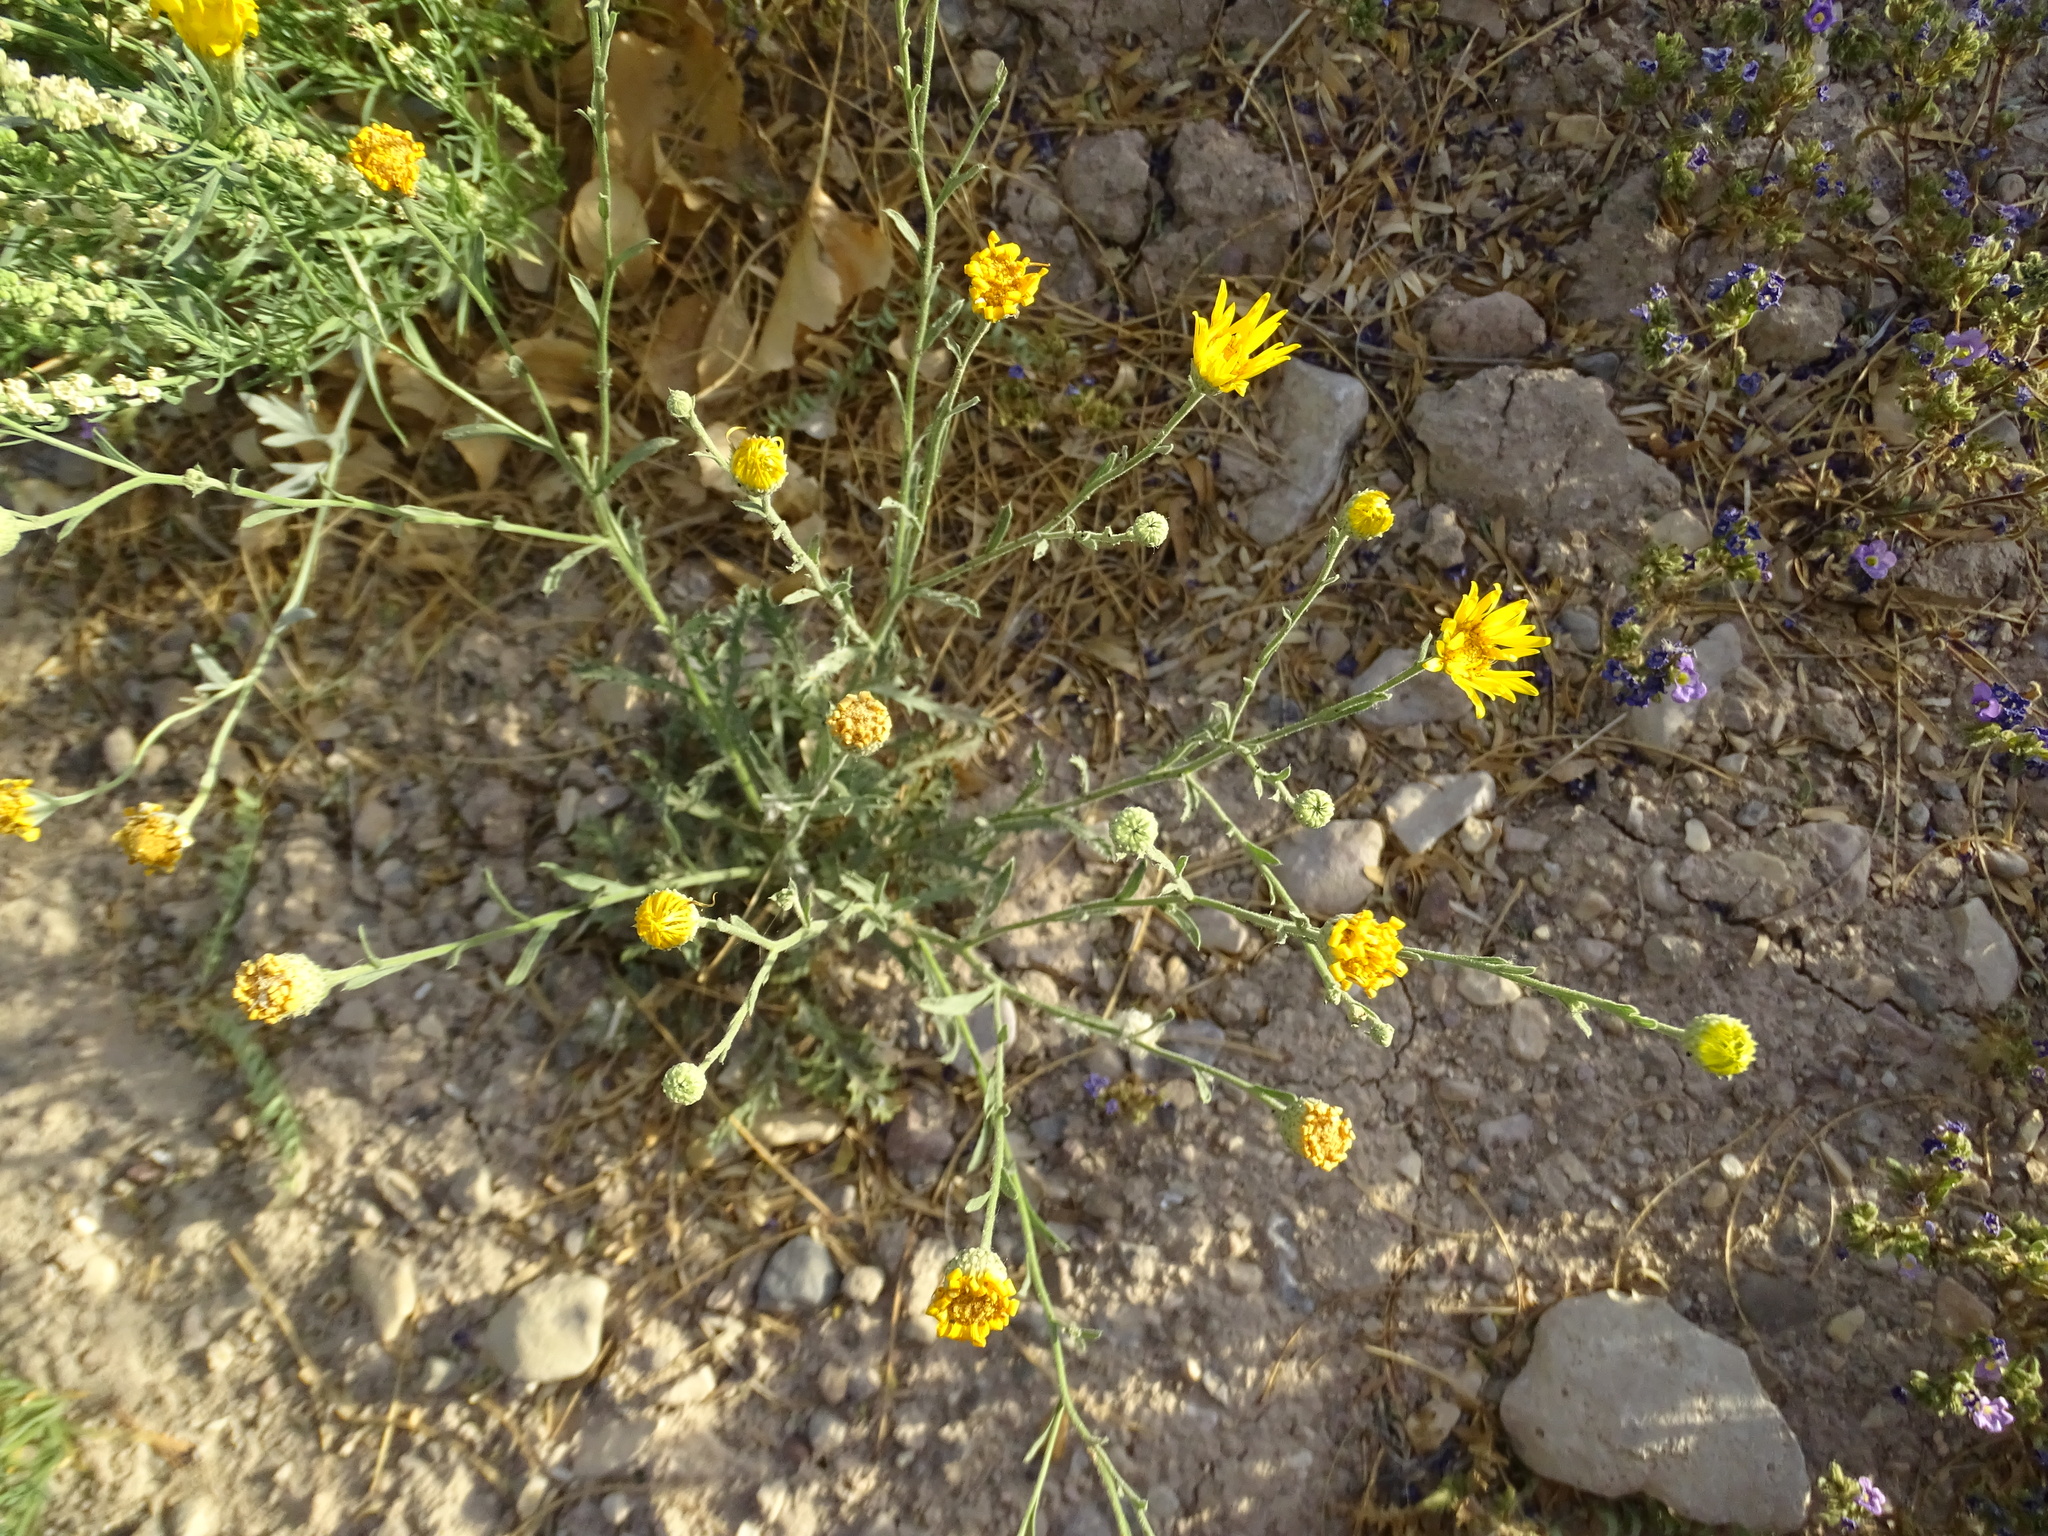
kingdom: Plantae
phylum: Tracheophyta
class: Magnoliopsida
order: Asterales
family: Asteraceae
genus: Xanthisma
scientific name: Xanthisma spinulosum
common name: Spiny goldenweed
